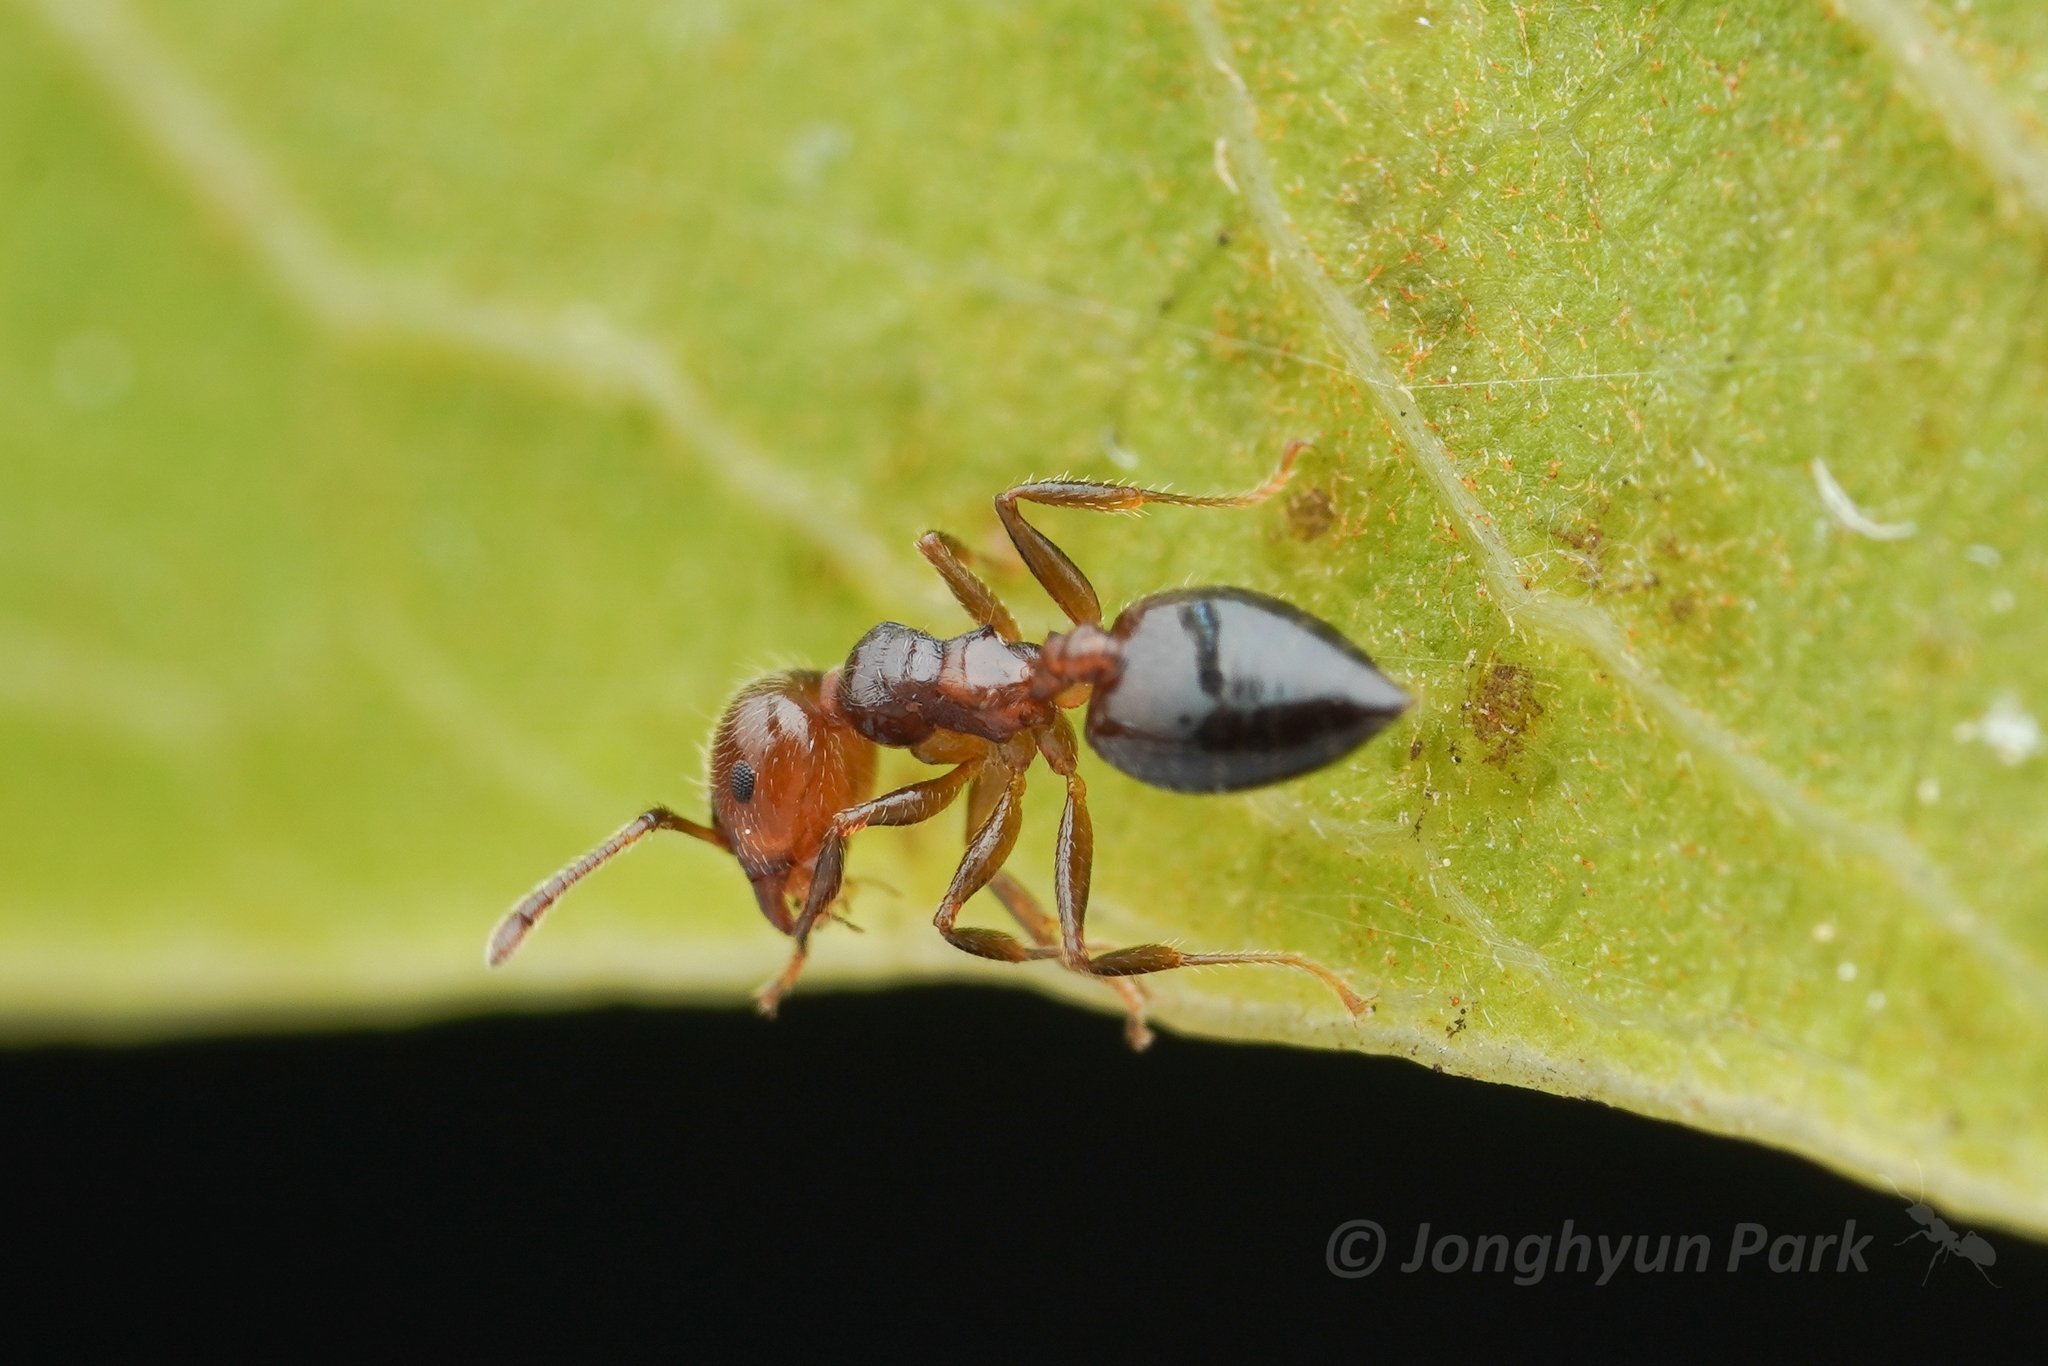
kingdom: Animalia
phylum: Arthropoda
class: Insecta
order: Hymenoptera
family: Formicidae
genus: Crematogaster
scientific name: Crematogaster matsumurai
